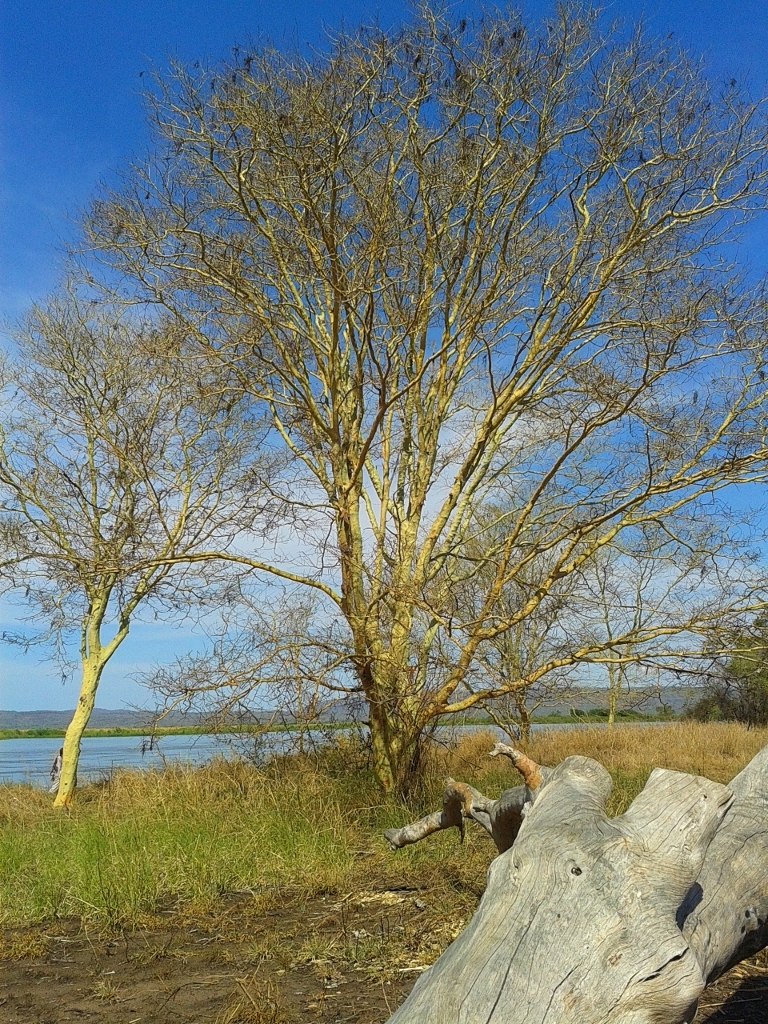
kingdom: Plantae
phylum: Tracheophyta
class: Magnoliopsida
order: Fabales
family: Fabaceae
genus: Vachellia
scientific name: Vachellia xanthophloea
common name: Fever tree
